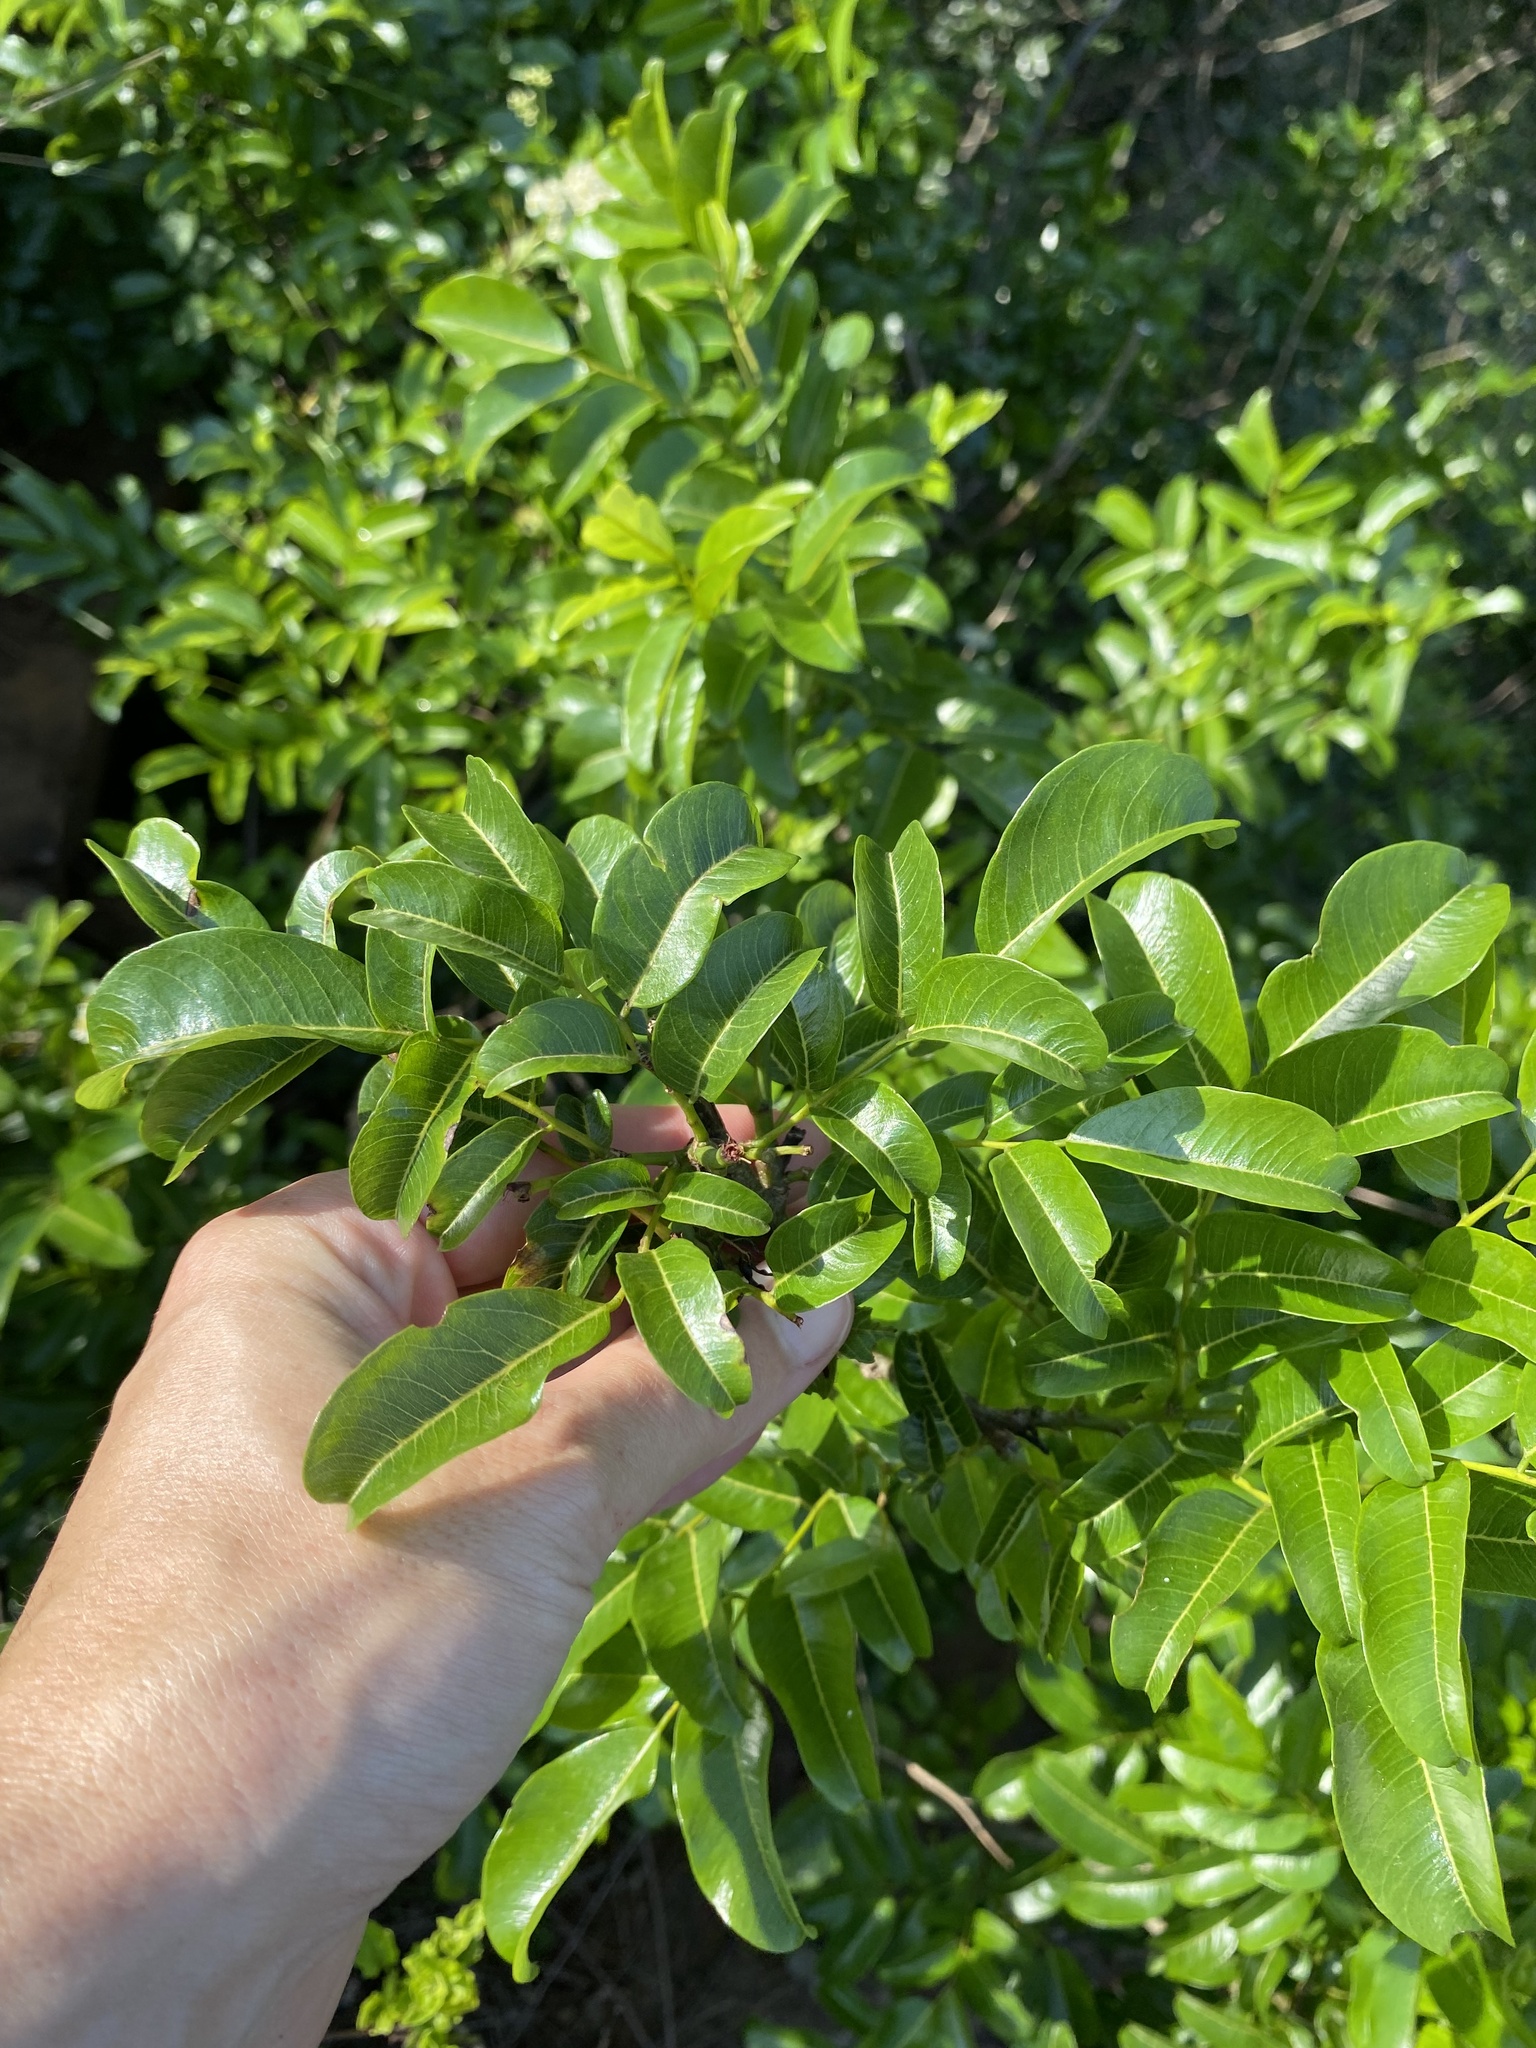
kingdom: Plantae
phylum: Tracheophyta
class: Magnoliopsida
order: Fabales
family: Fabaceae
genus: Dalbergia
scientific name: Dalbergia obovata
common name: Climbing flat-bean
